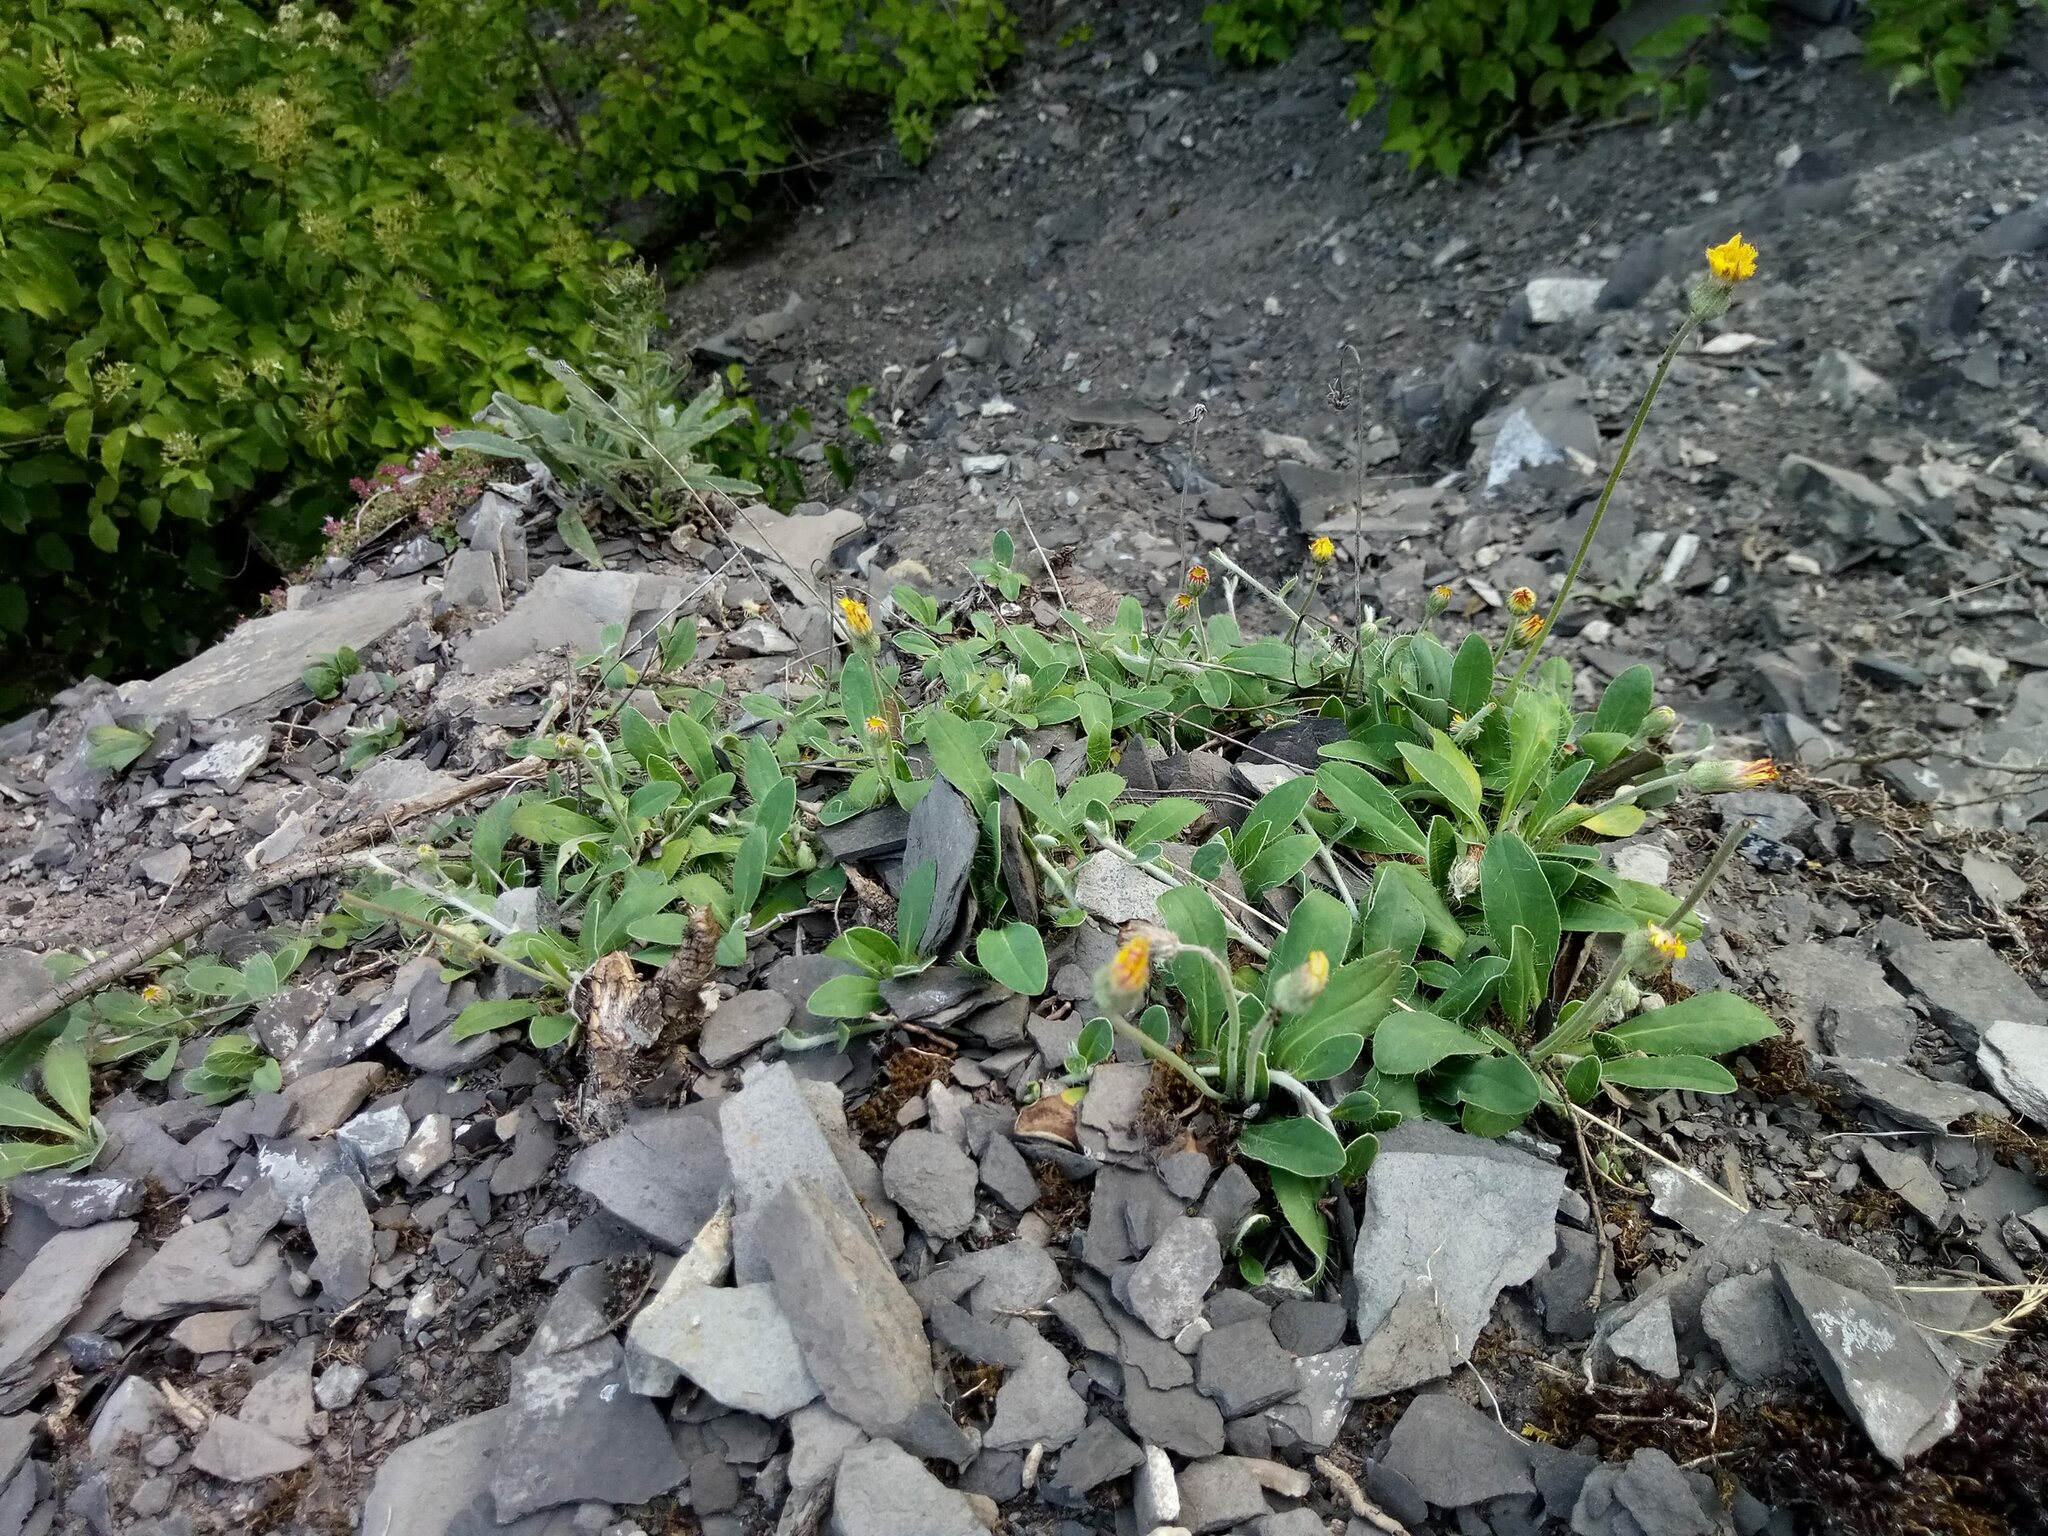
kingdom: Plantae
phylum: Tracheophyta
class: Magnoliopsida
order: Asterales
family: Asteraceae
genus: Pilosella
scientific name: Pilosella officinarum
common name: Mouse-ear hawkweed
